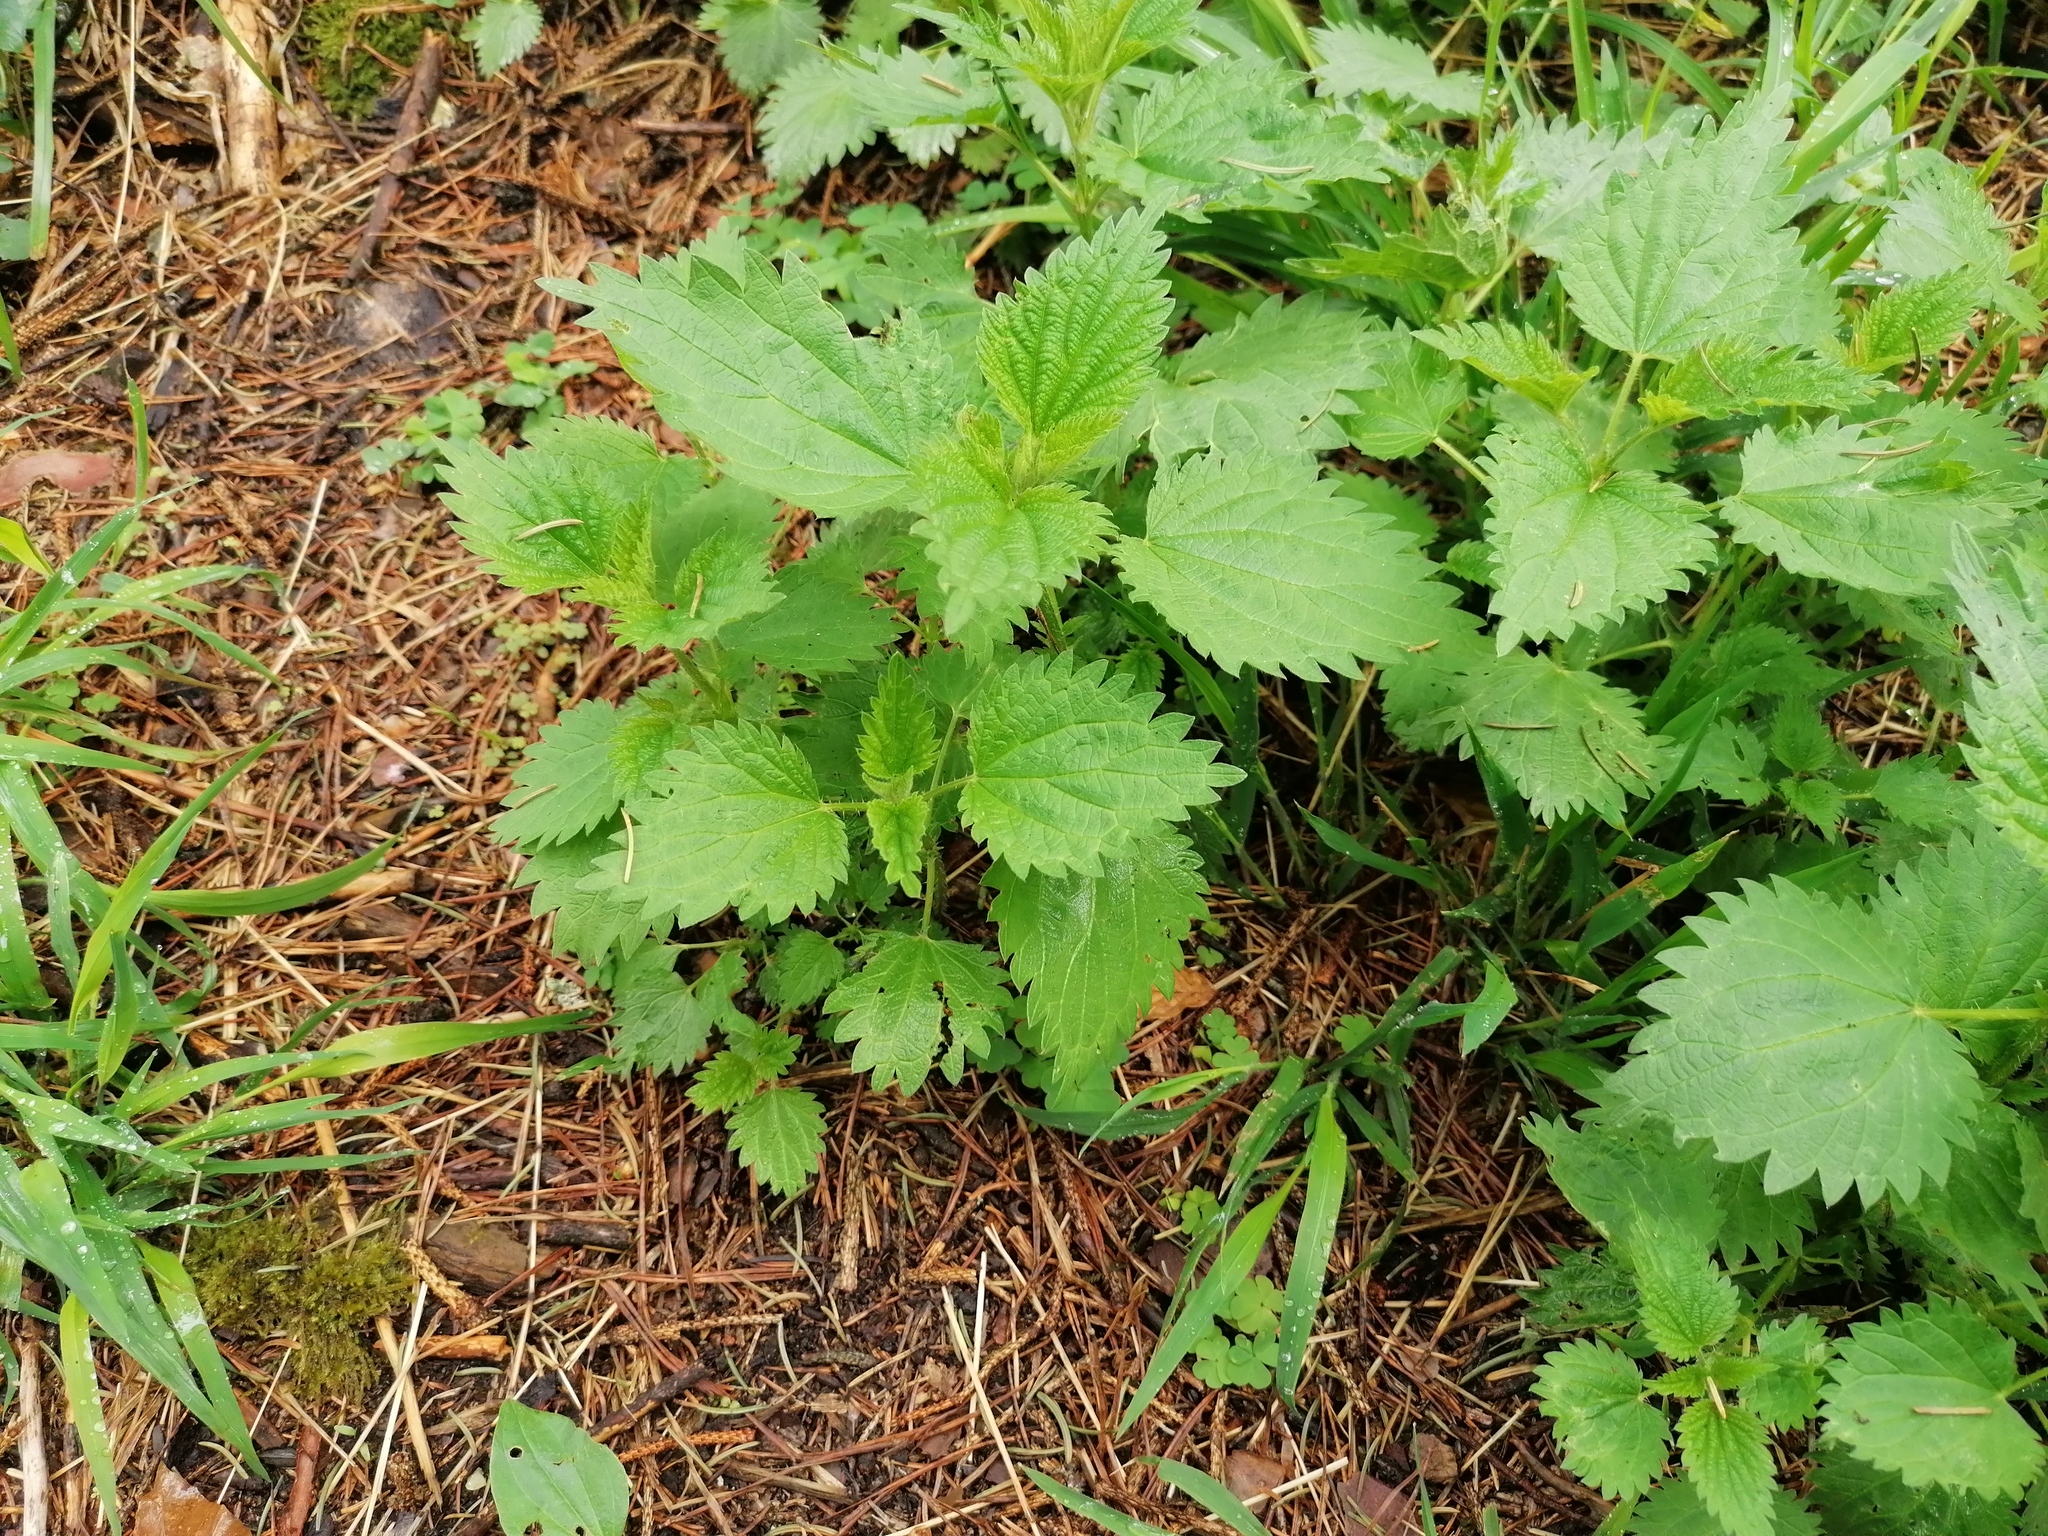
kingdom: Plantae
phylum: Tracheophyta
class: Magnoliopsida
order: Rosales
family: Urticaceae
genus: Urtica
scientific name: Urtica dioica
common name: Common nettle
